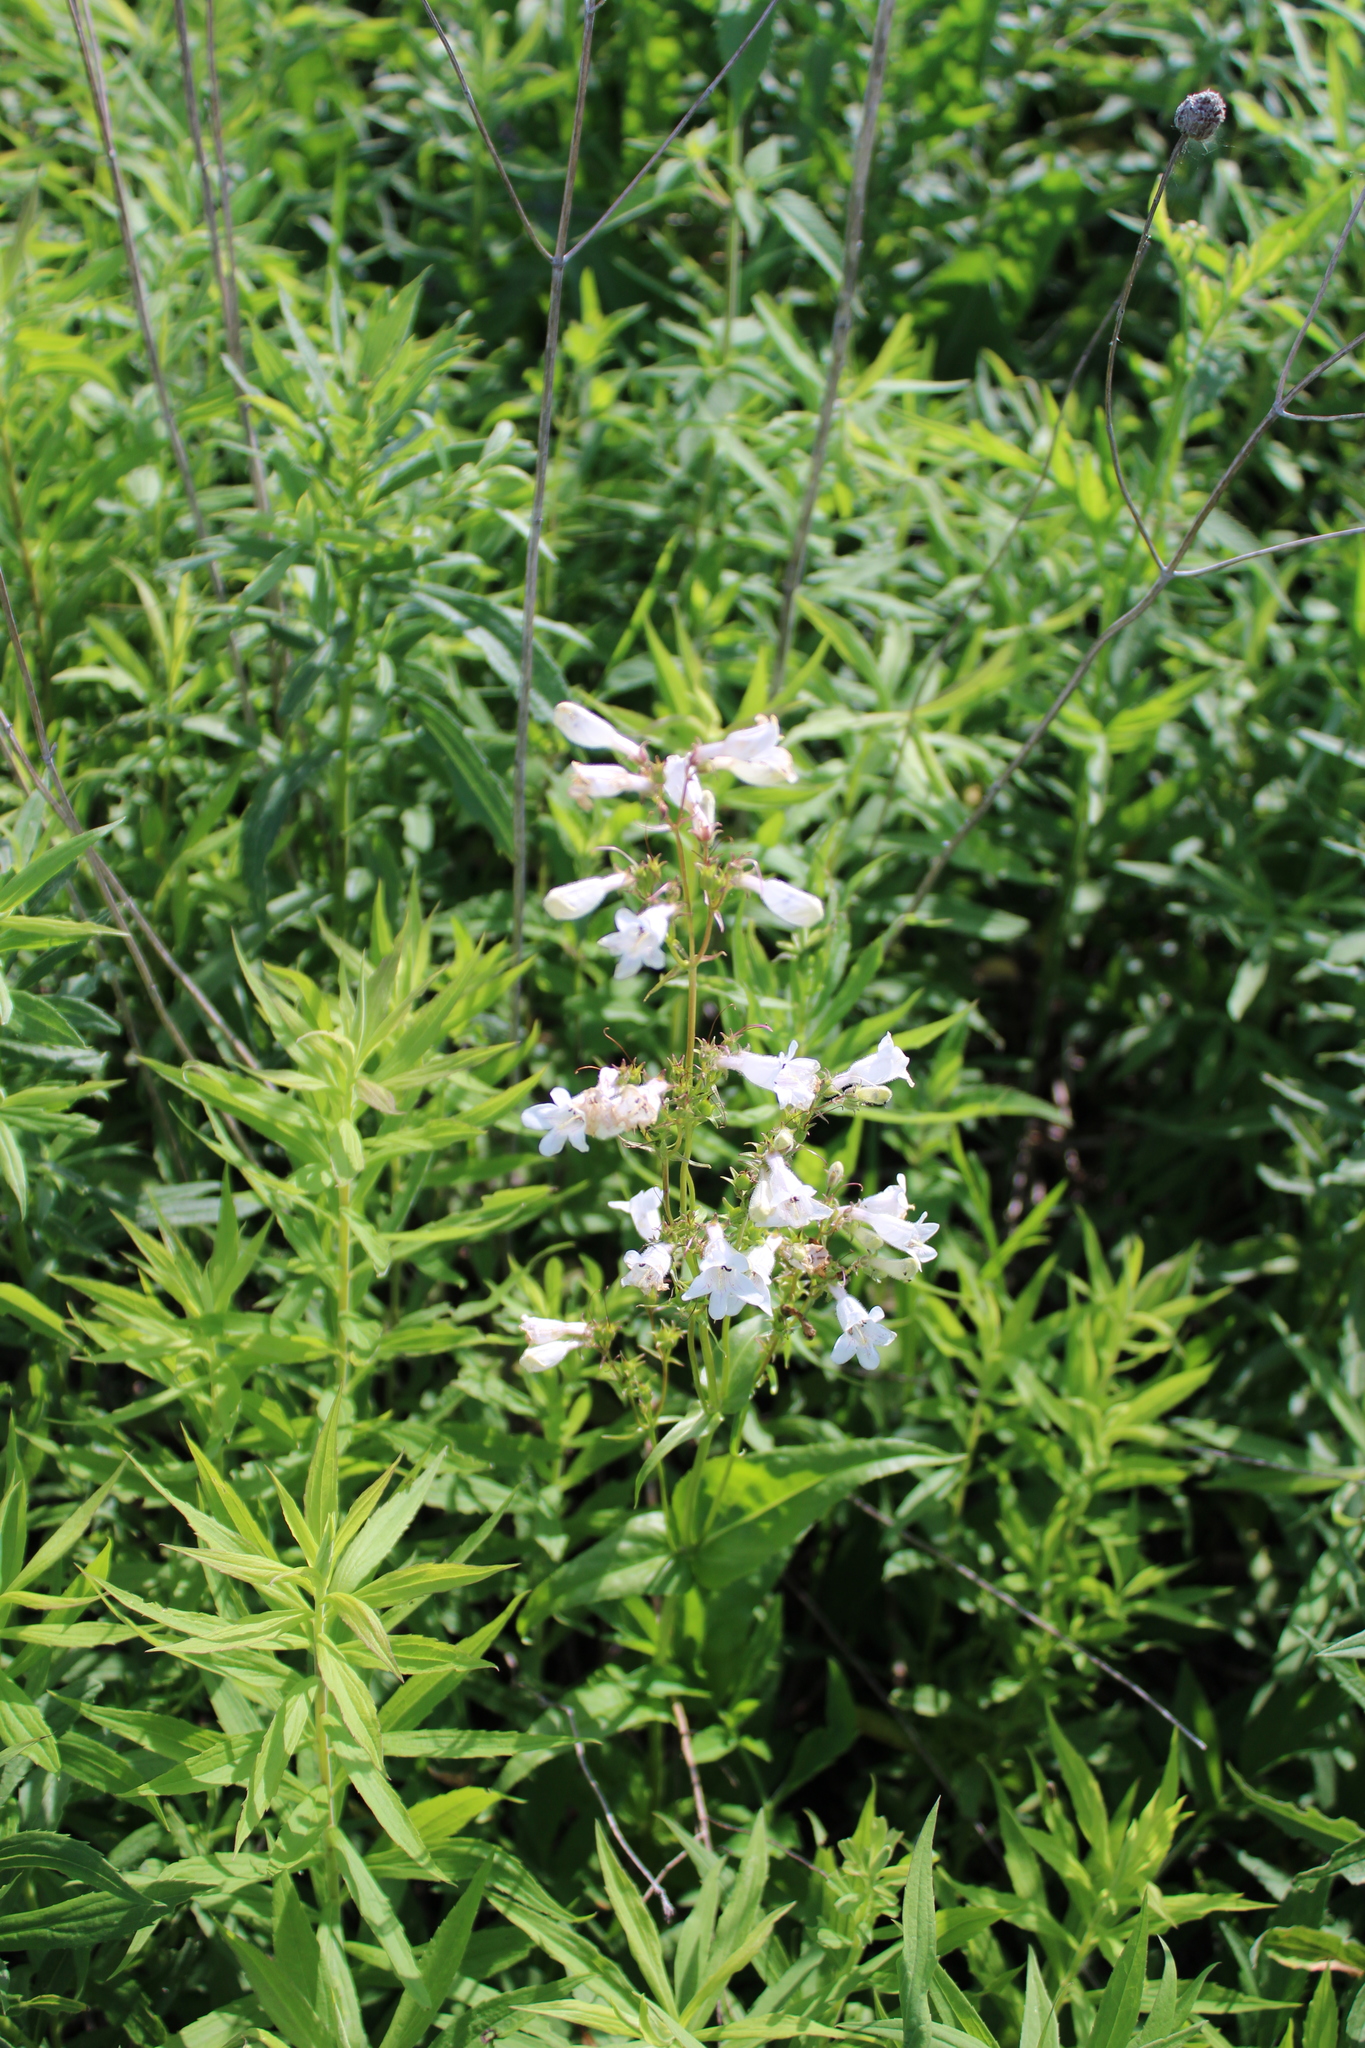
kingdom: Plantae
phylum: Tracheophyta
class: Magnoliopsida
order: Lamiales
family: Plantaginaceae
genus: Penstemon
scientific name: Penstemon digitalis
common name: Foxglove beardtongue
